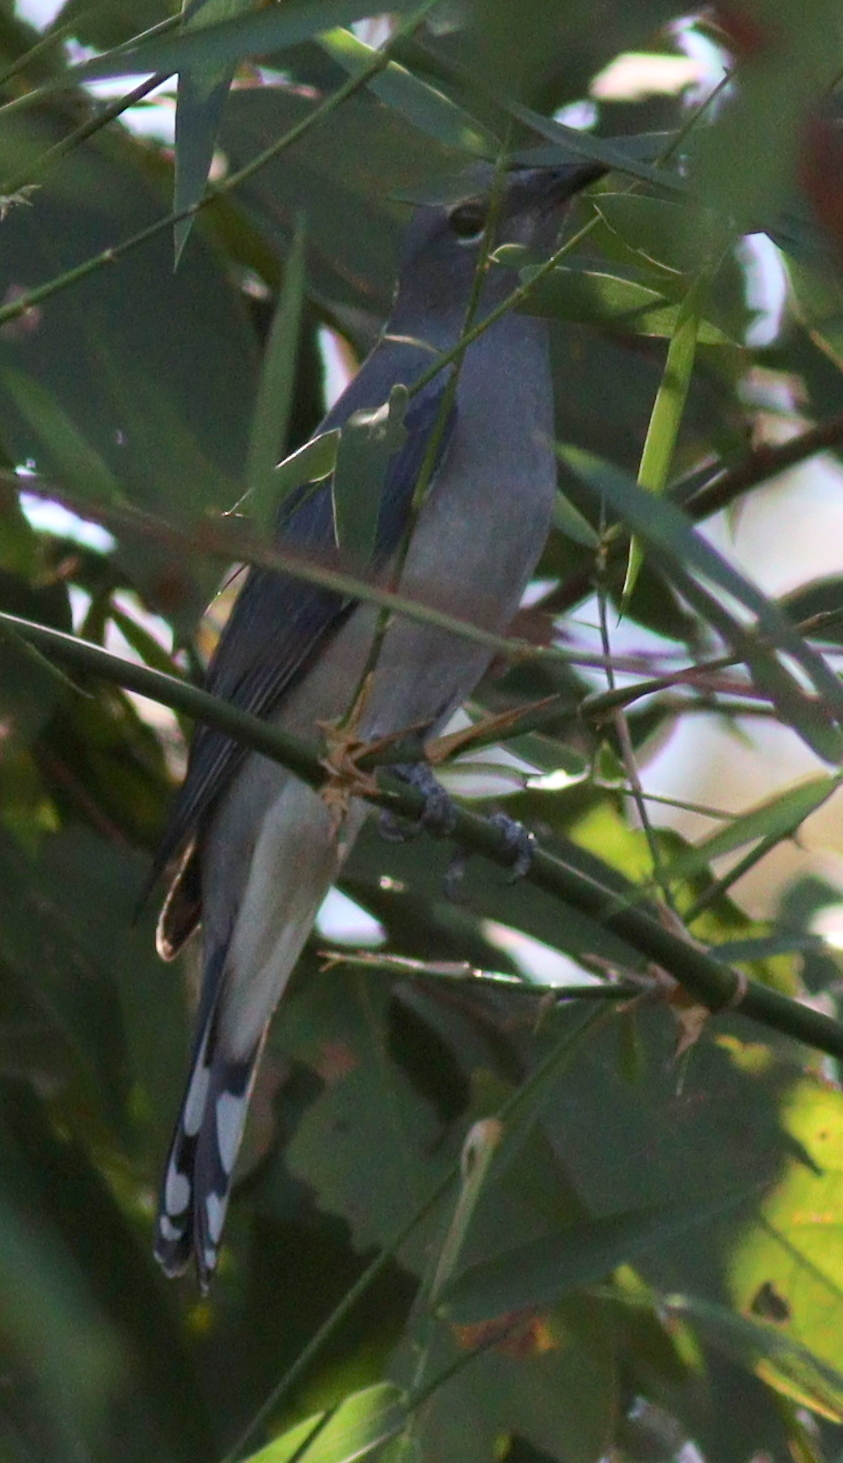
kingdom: Animalia
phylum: Chordata
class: Aves
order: Passeriformes
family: Campephagidae
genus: Coracina
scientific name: Coracina melaschistos
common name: Black-winged cuckooshrike
